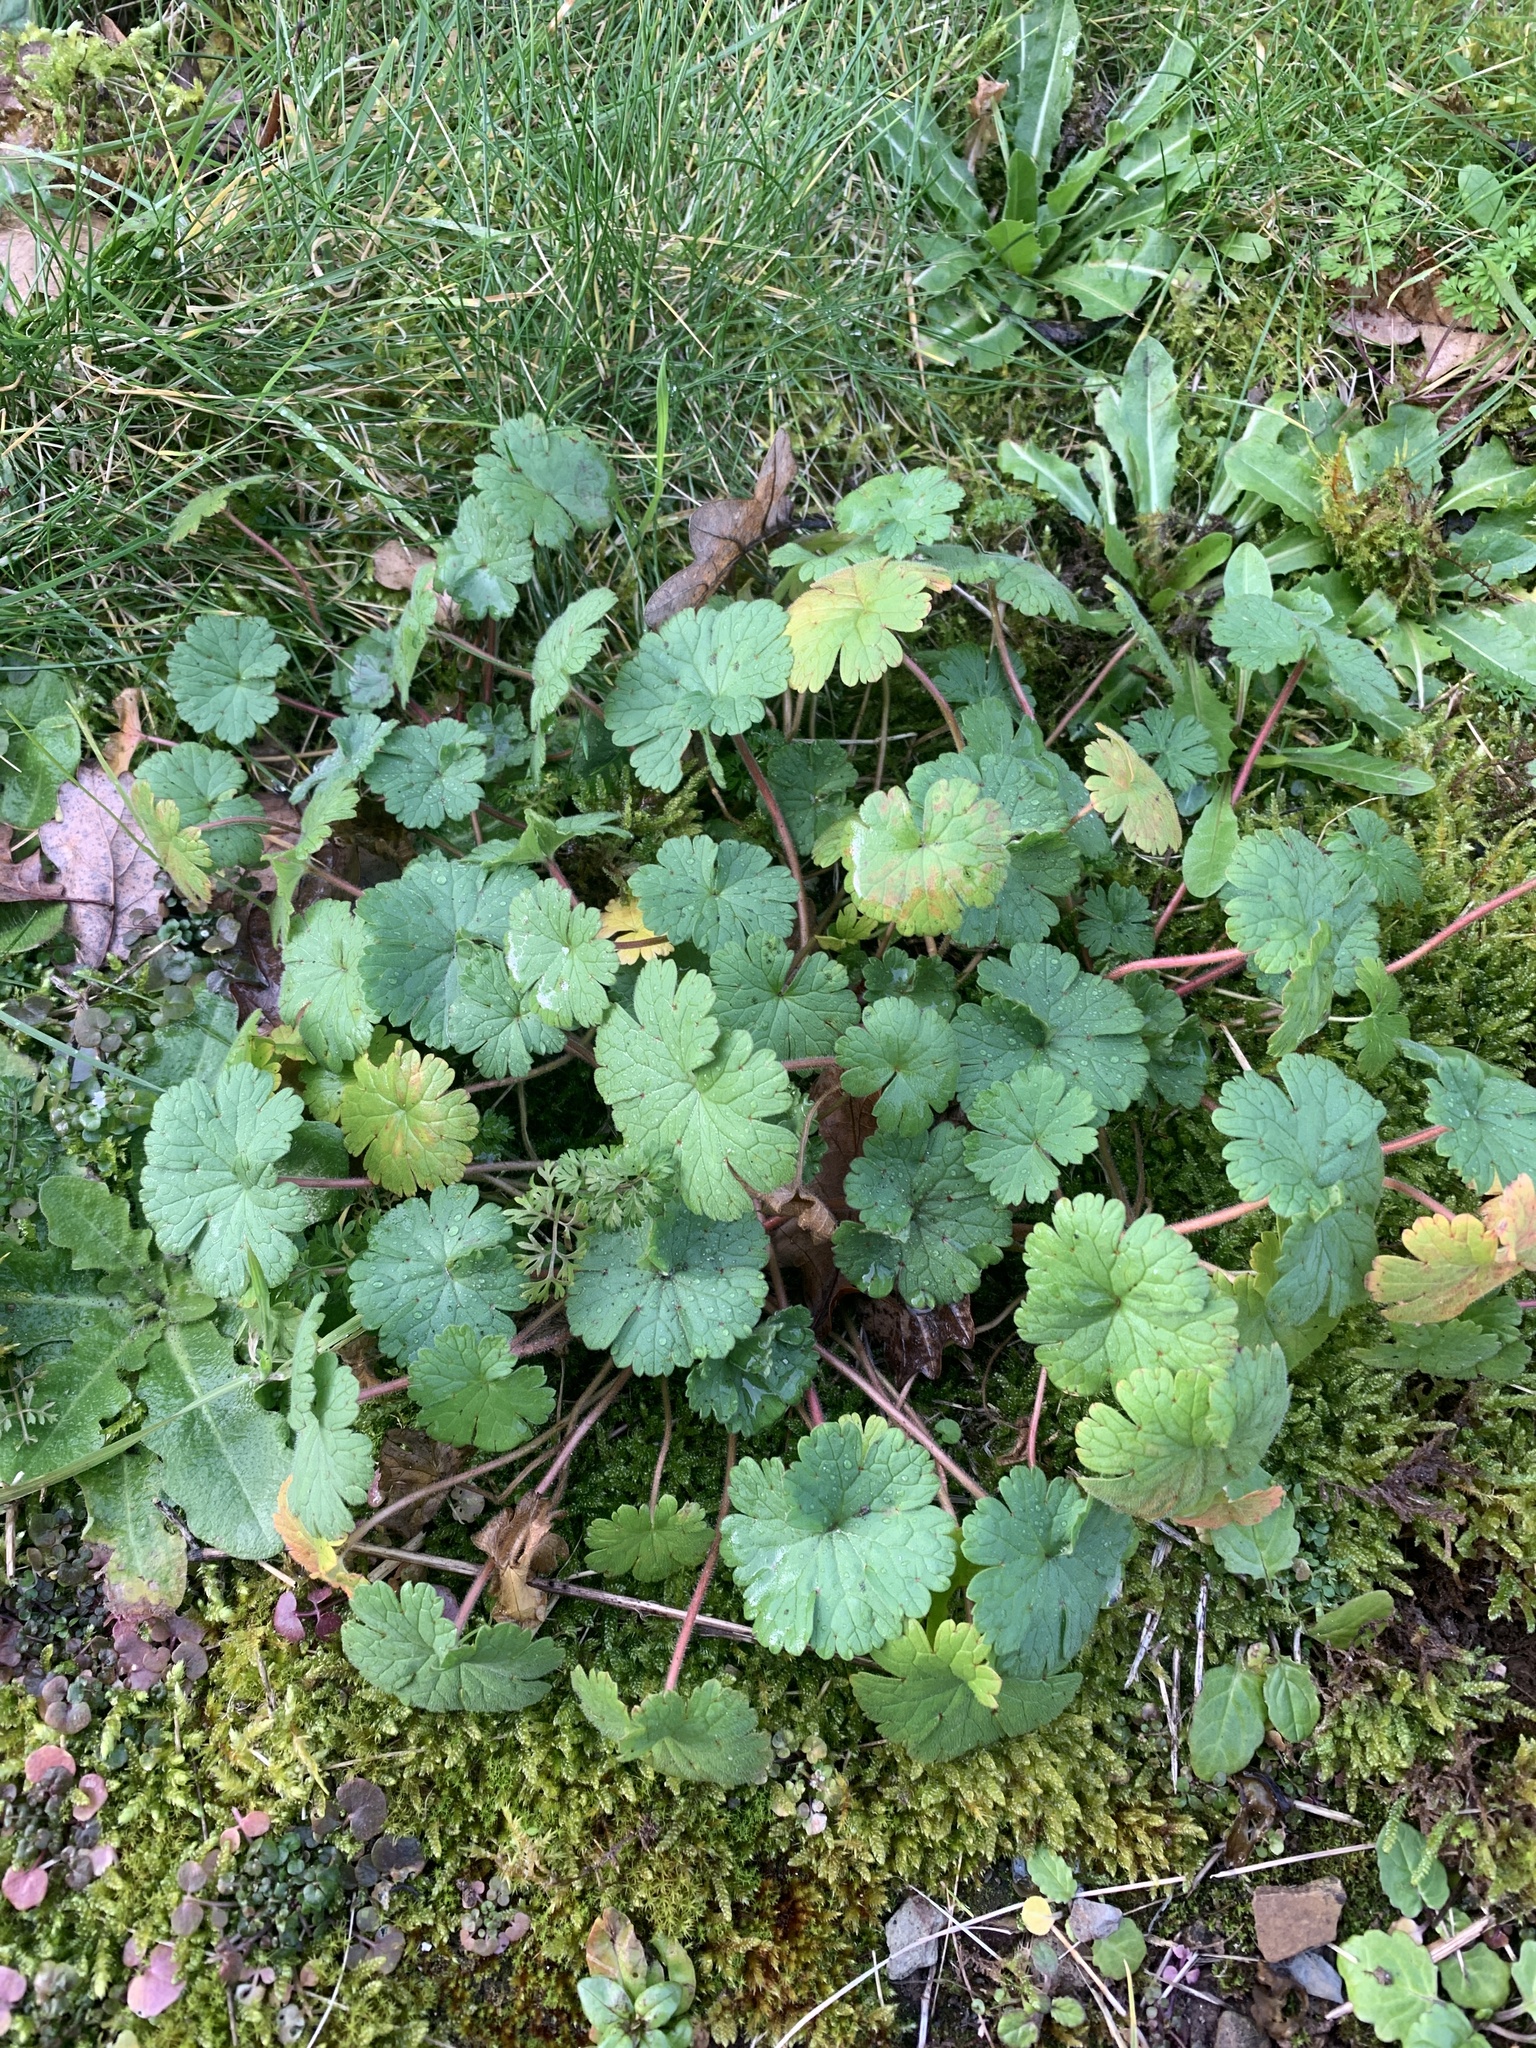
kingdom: Plantae
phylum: Tracheophyta
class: Magnoliopsida
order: Geraniales
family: Geraniaceae
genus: Geranium
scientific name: Geranium rotundifolium
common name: Round-leaved crane's-bill
